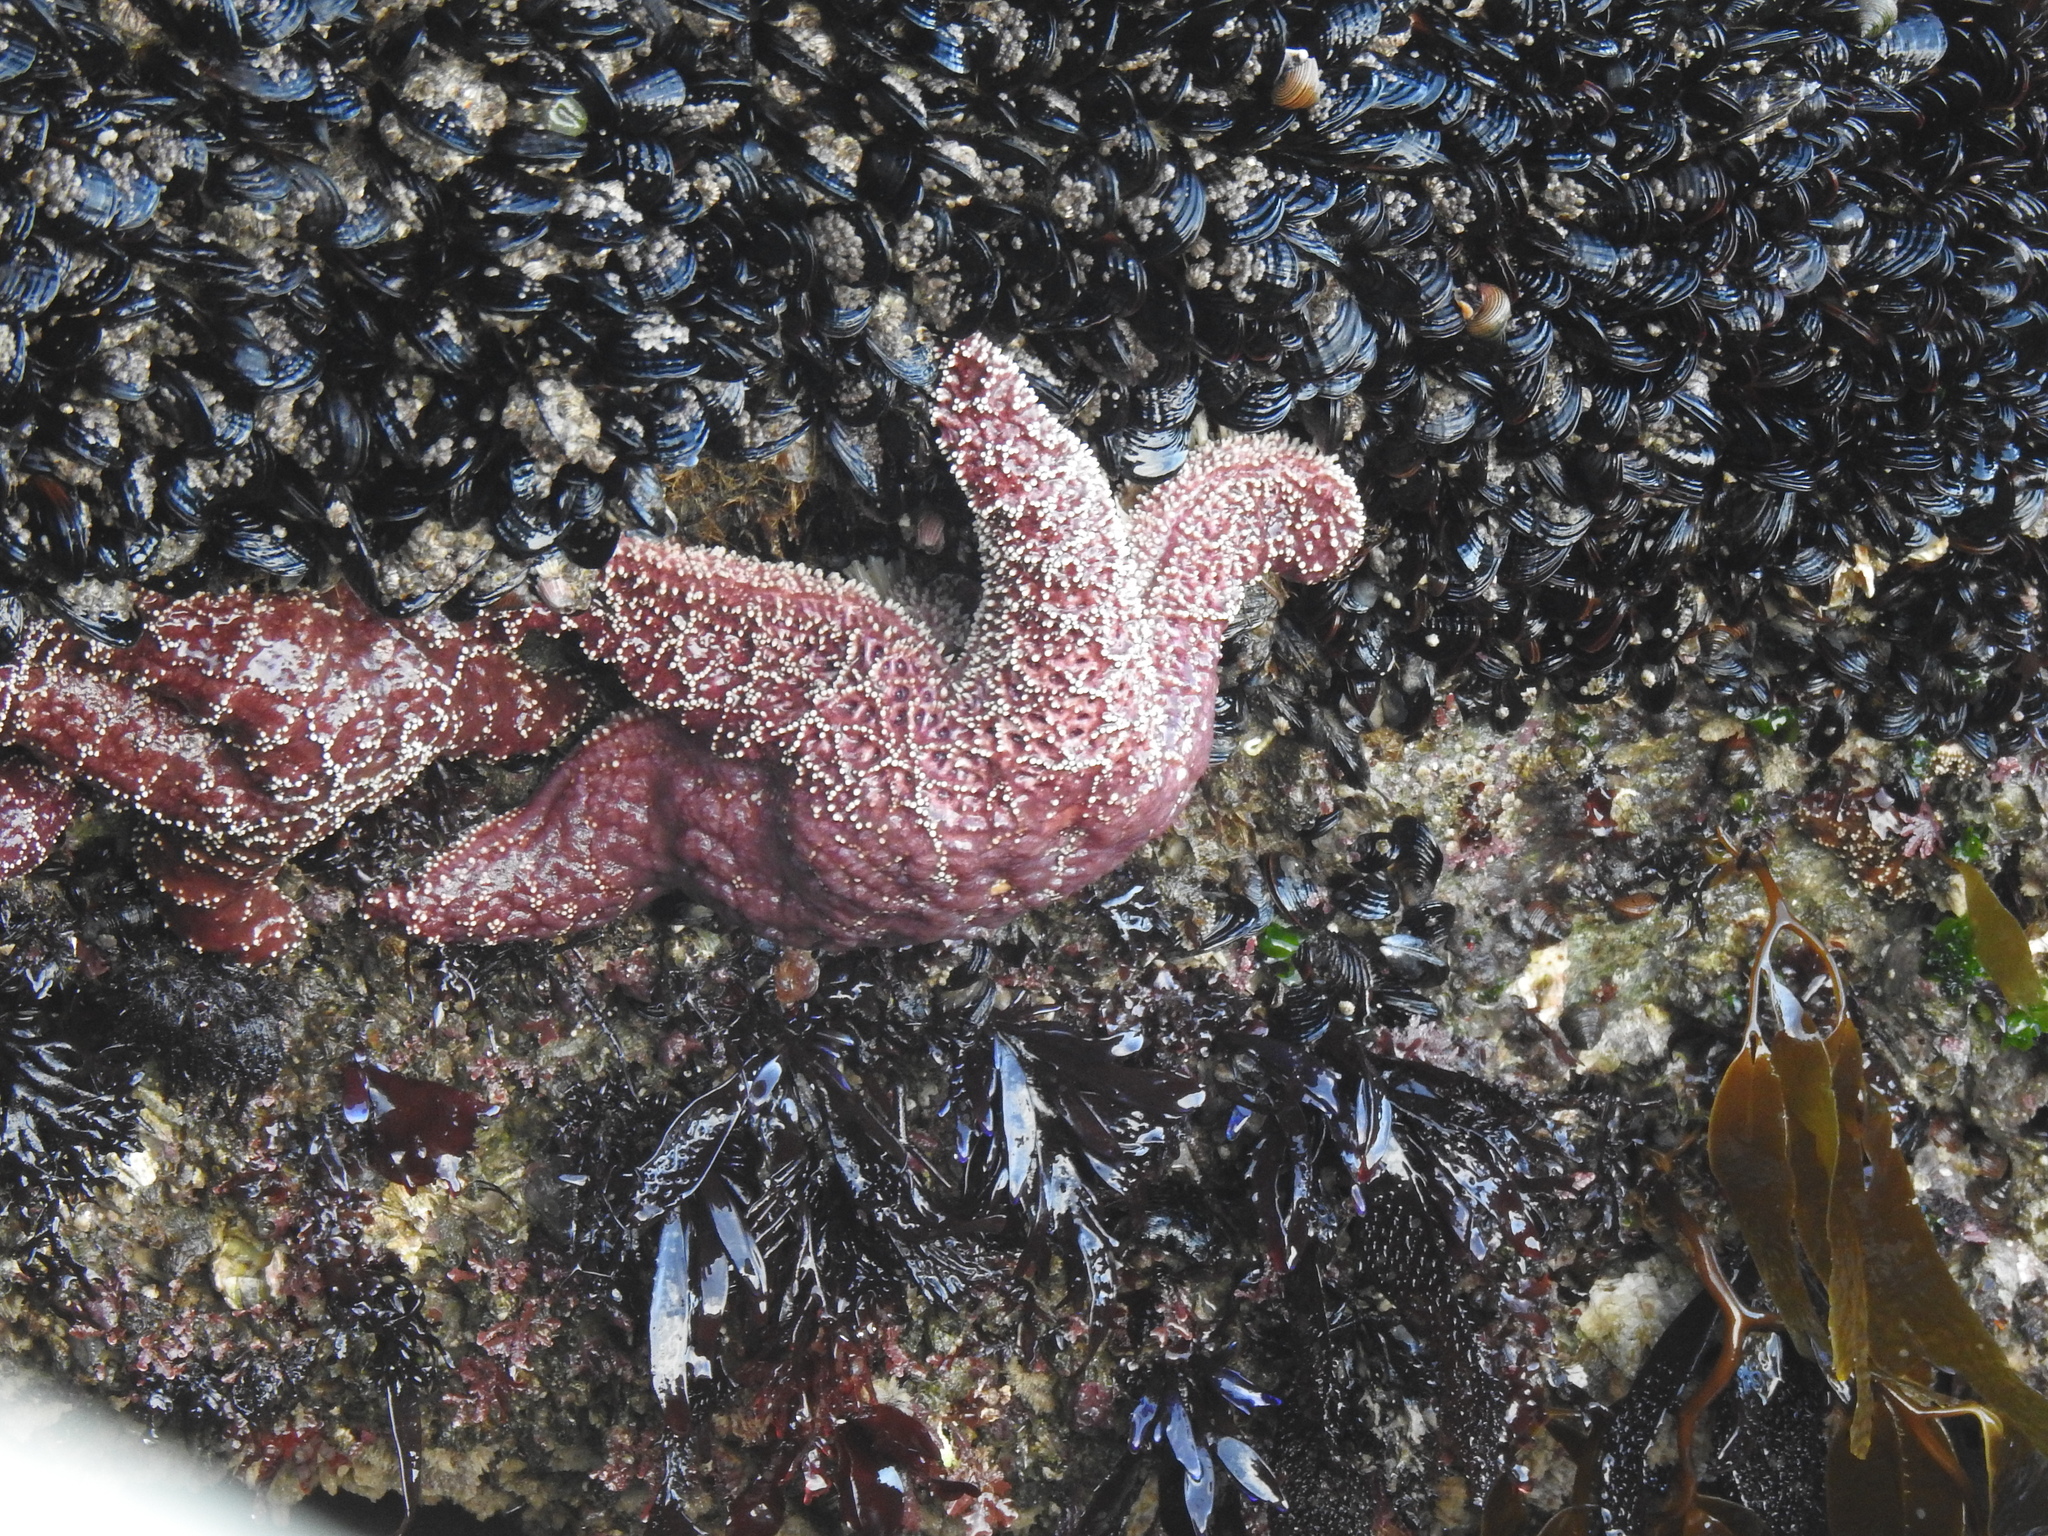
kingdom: Animalia
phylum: Echinodermata
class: Asteroidea
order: Forcipulatida
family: Asteriidae
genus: Pisaster
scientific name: Pisaster ochraceus
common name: Ochre stars
